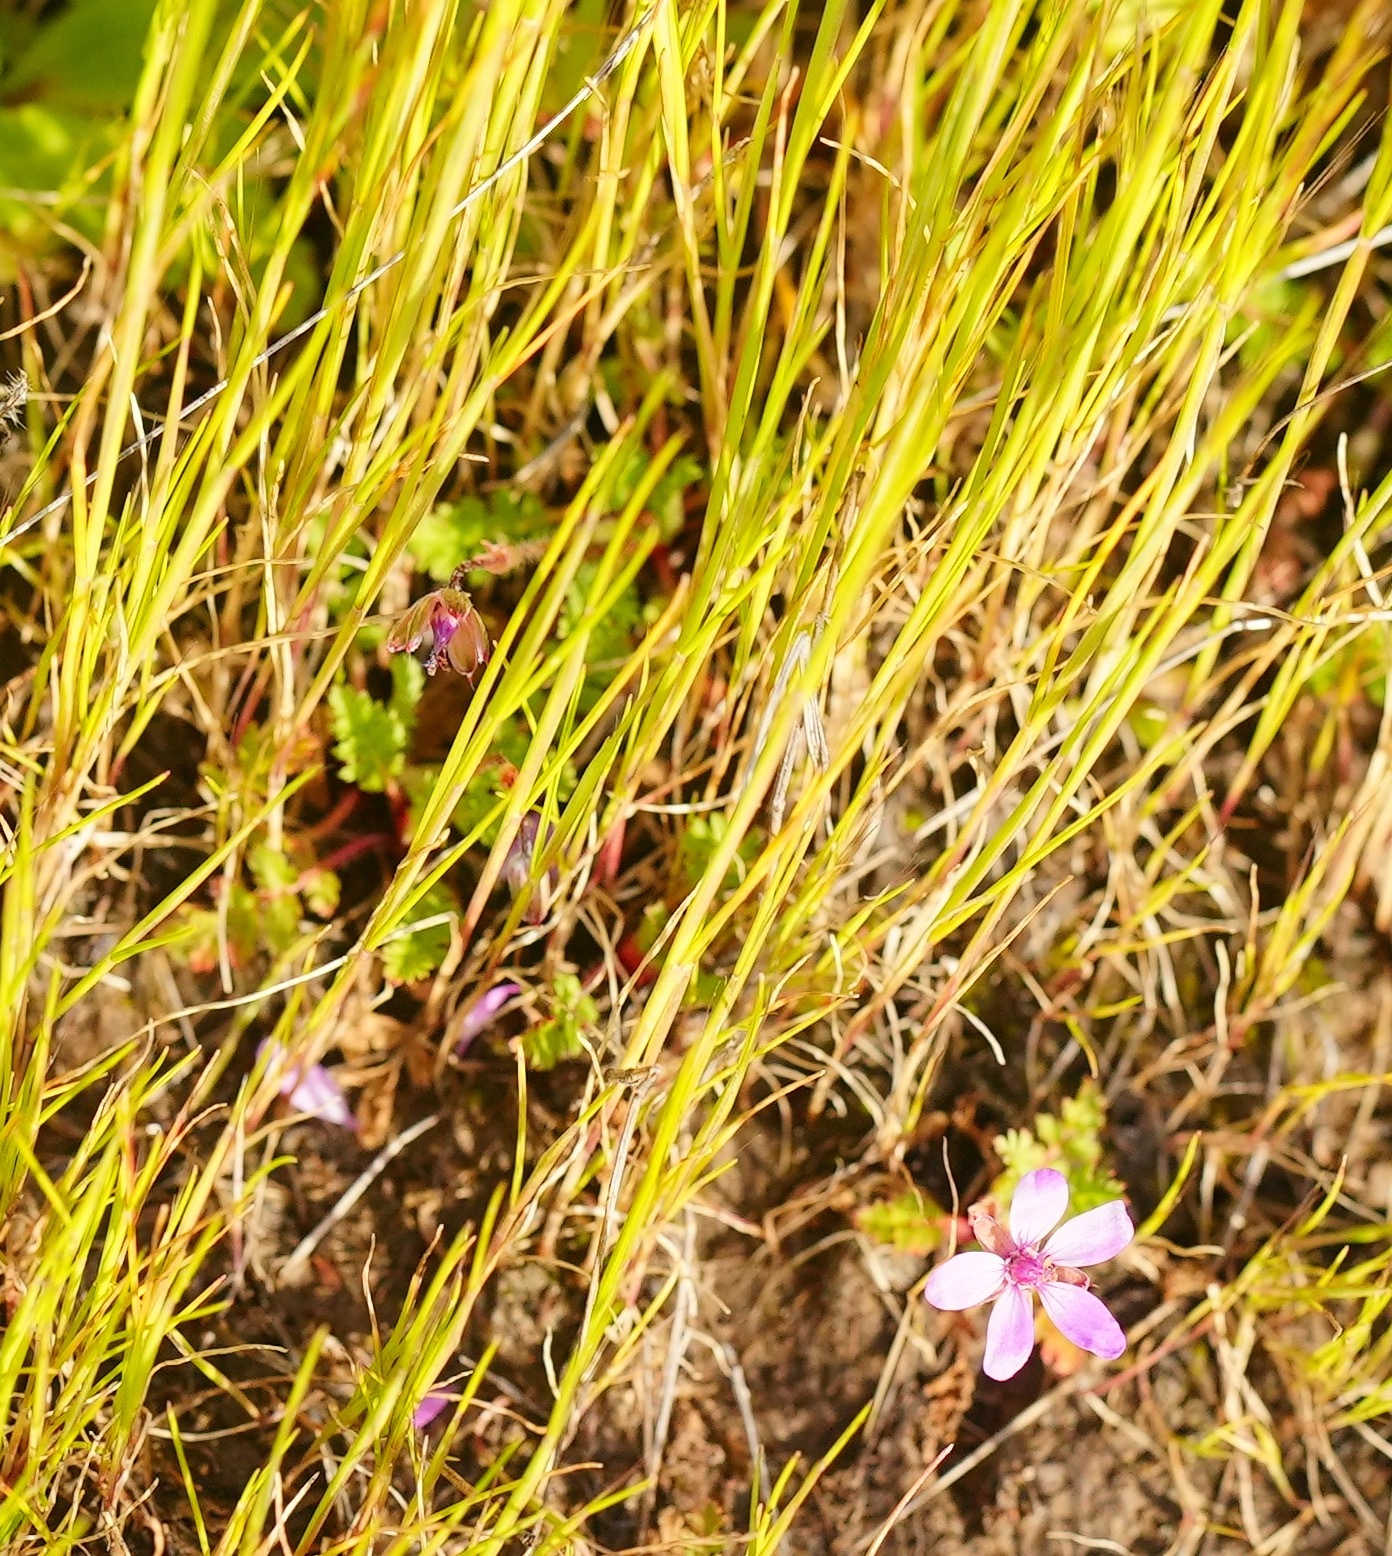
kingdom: Plantae
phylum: Tracheophyta
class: Magnoliopsida
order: Geraniales
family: Geraniaceae
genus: Erodium
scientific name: Erodium cicutarium
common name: Common stork's-bill
